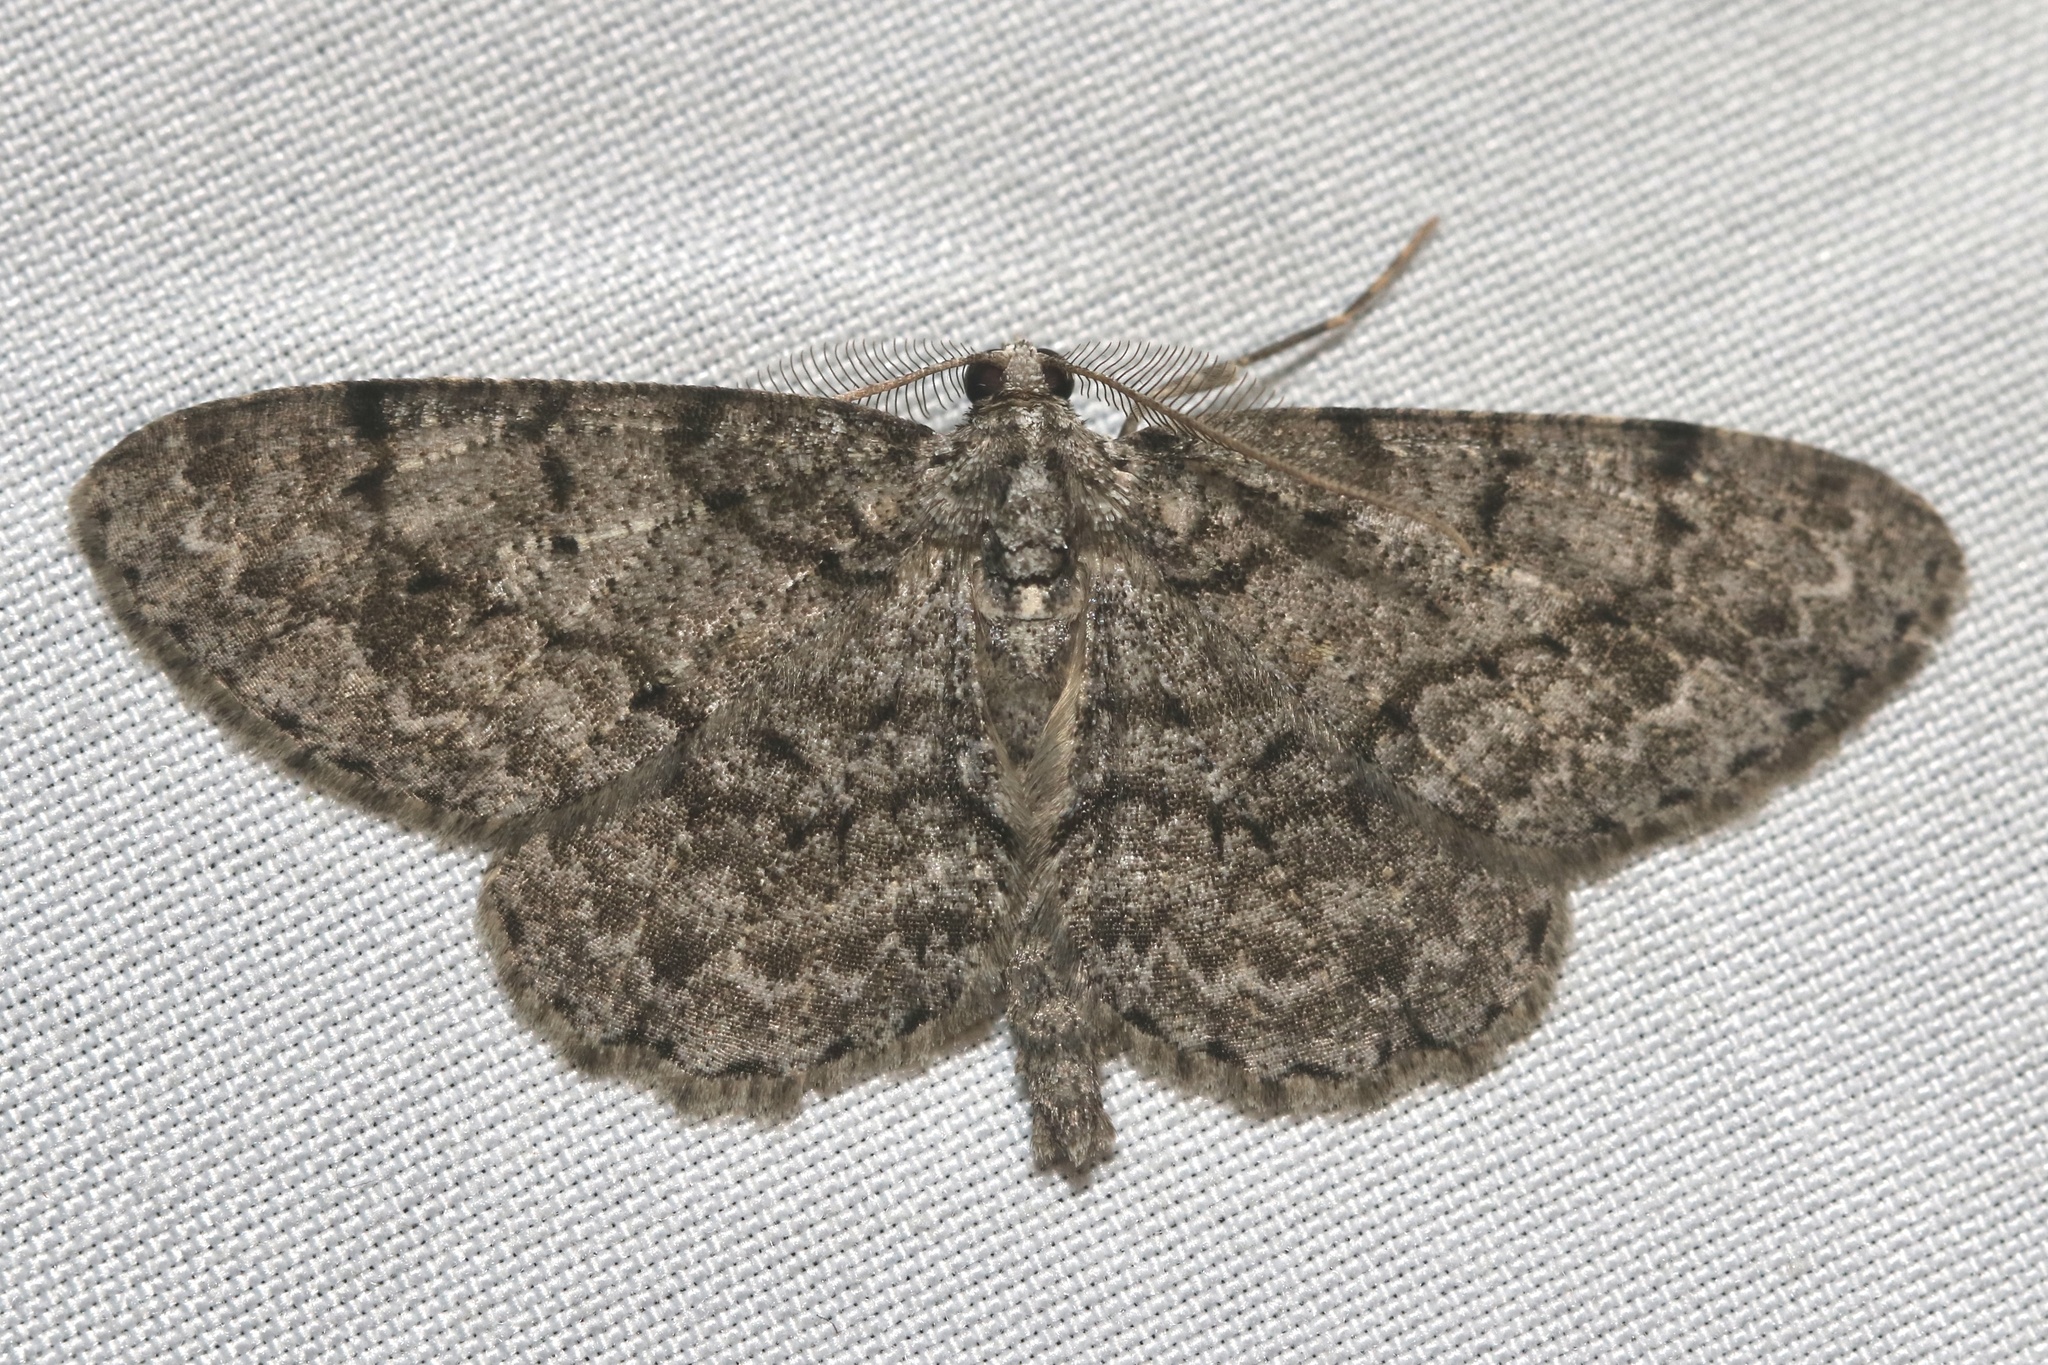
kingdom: Animalia
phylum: Arthropoda
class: Insecta
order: Lepidoptera
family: Geometridae
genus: Protoboarmia
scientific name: Protoboarmia porcelaria
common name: Porcelain gray
